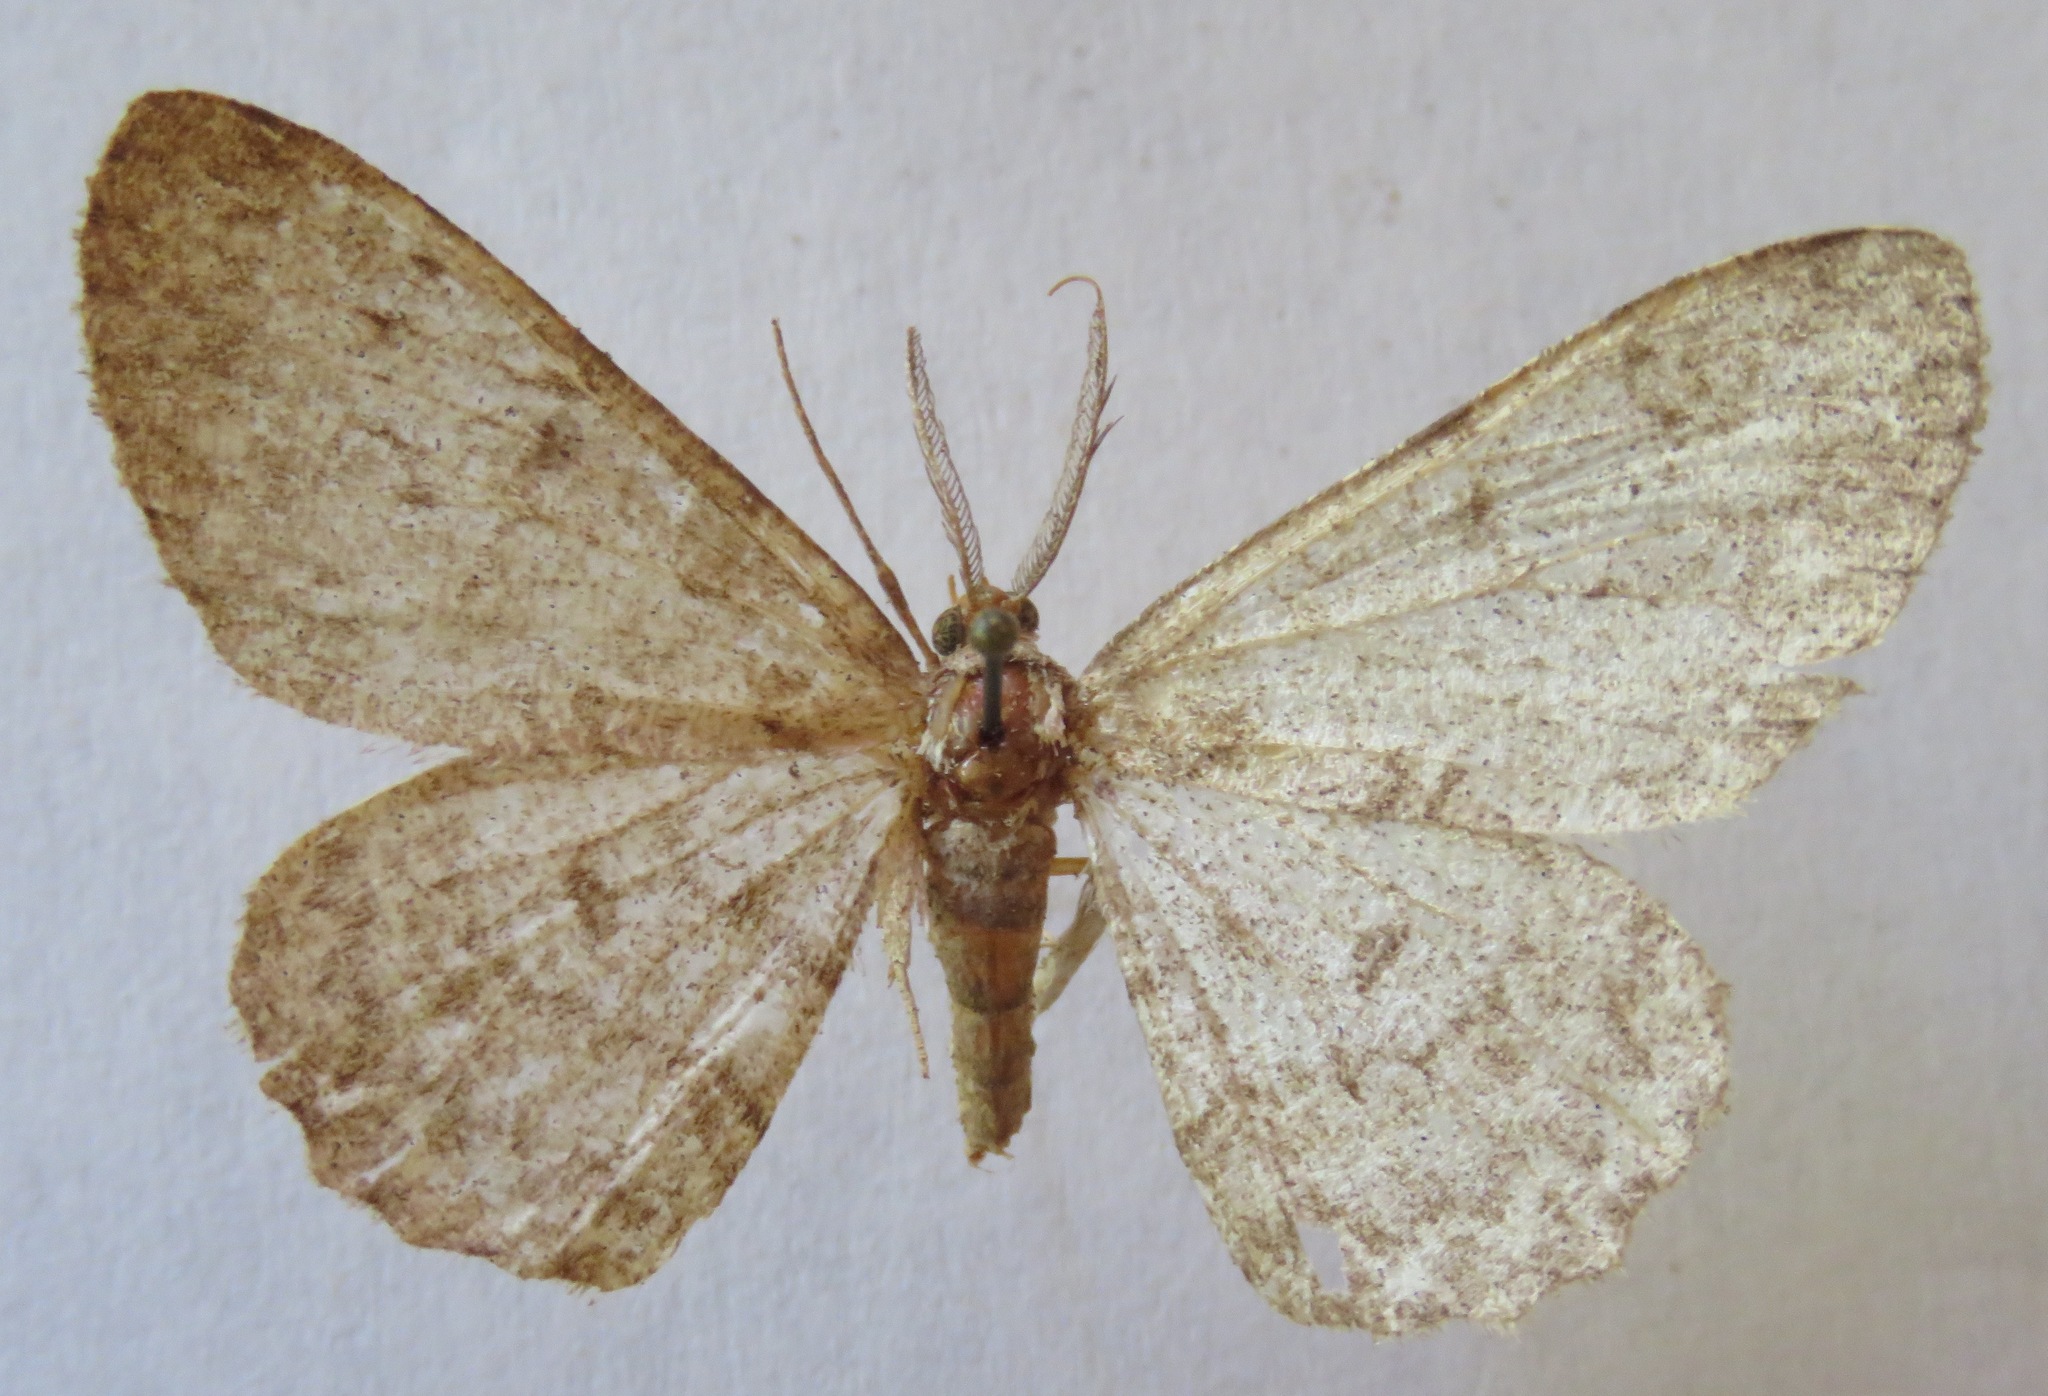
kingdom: Animalia
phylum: Arthropoda
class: Insecta
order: Lepidoptera
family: Geometridae
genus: Hypomecis
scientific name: Hypomecis punctinalis
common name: Pale oak beauty
